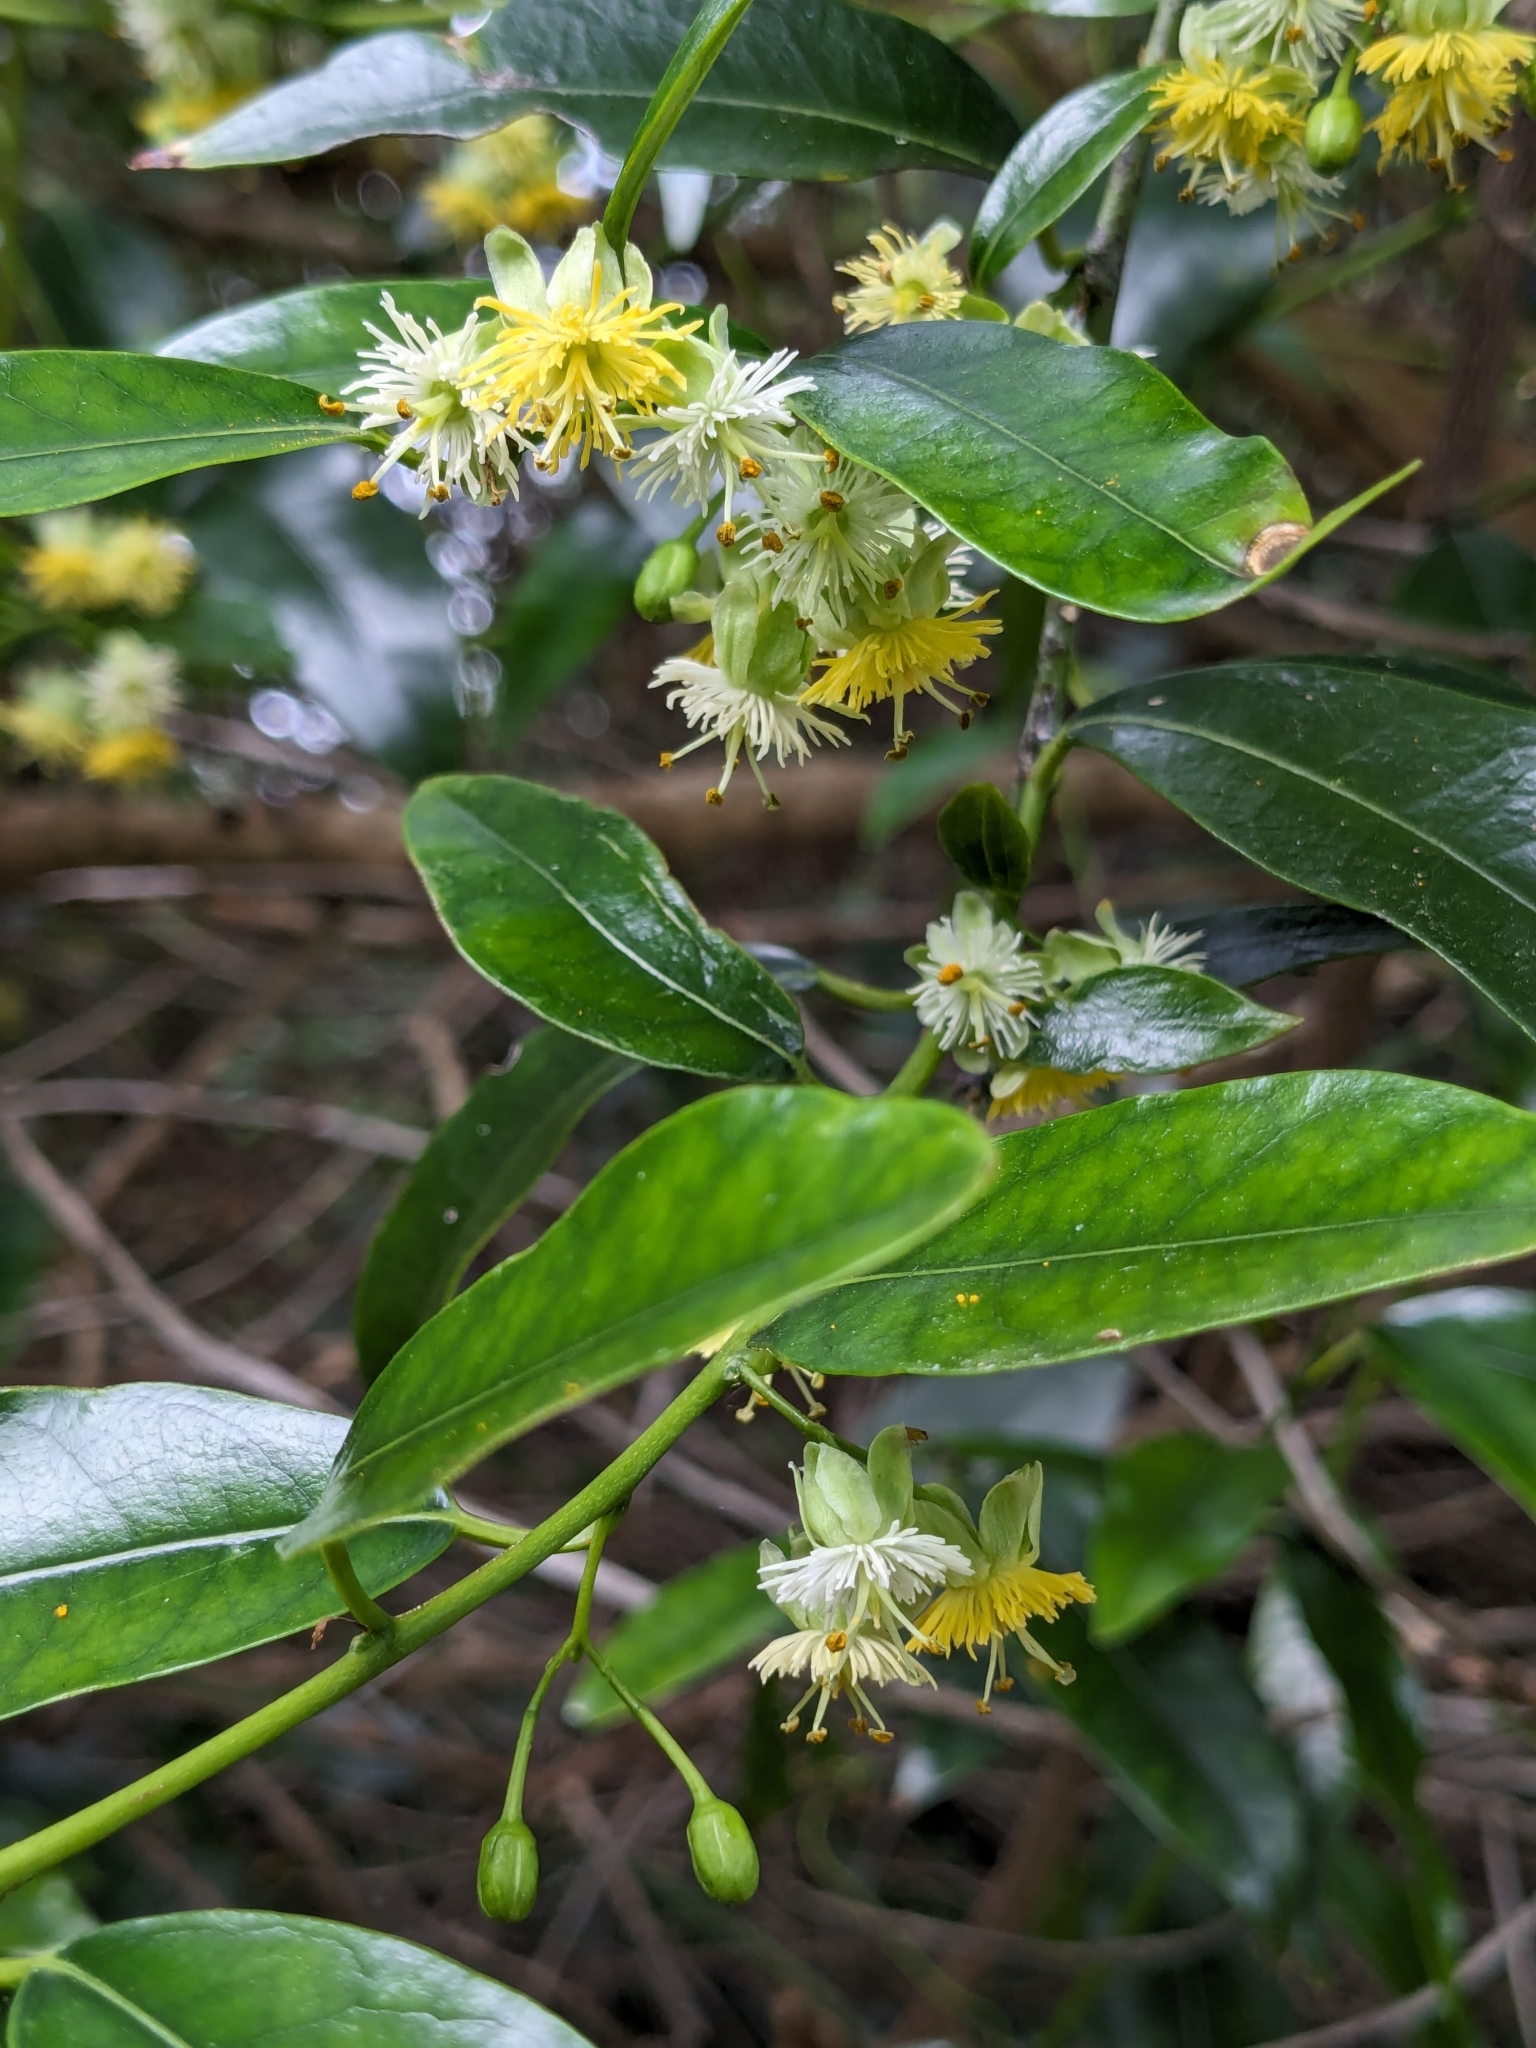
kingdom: Plantae
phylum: Tracheophyta
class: Magnoliopsida
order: Malpighiales
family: Passifloraceae
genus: Passiflora
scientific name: Passiflora tetrandra
